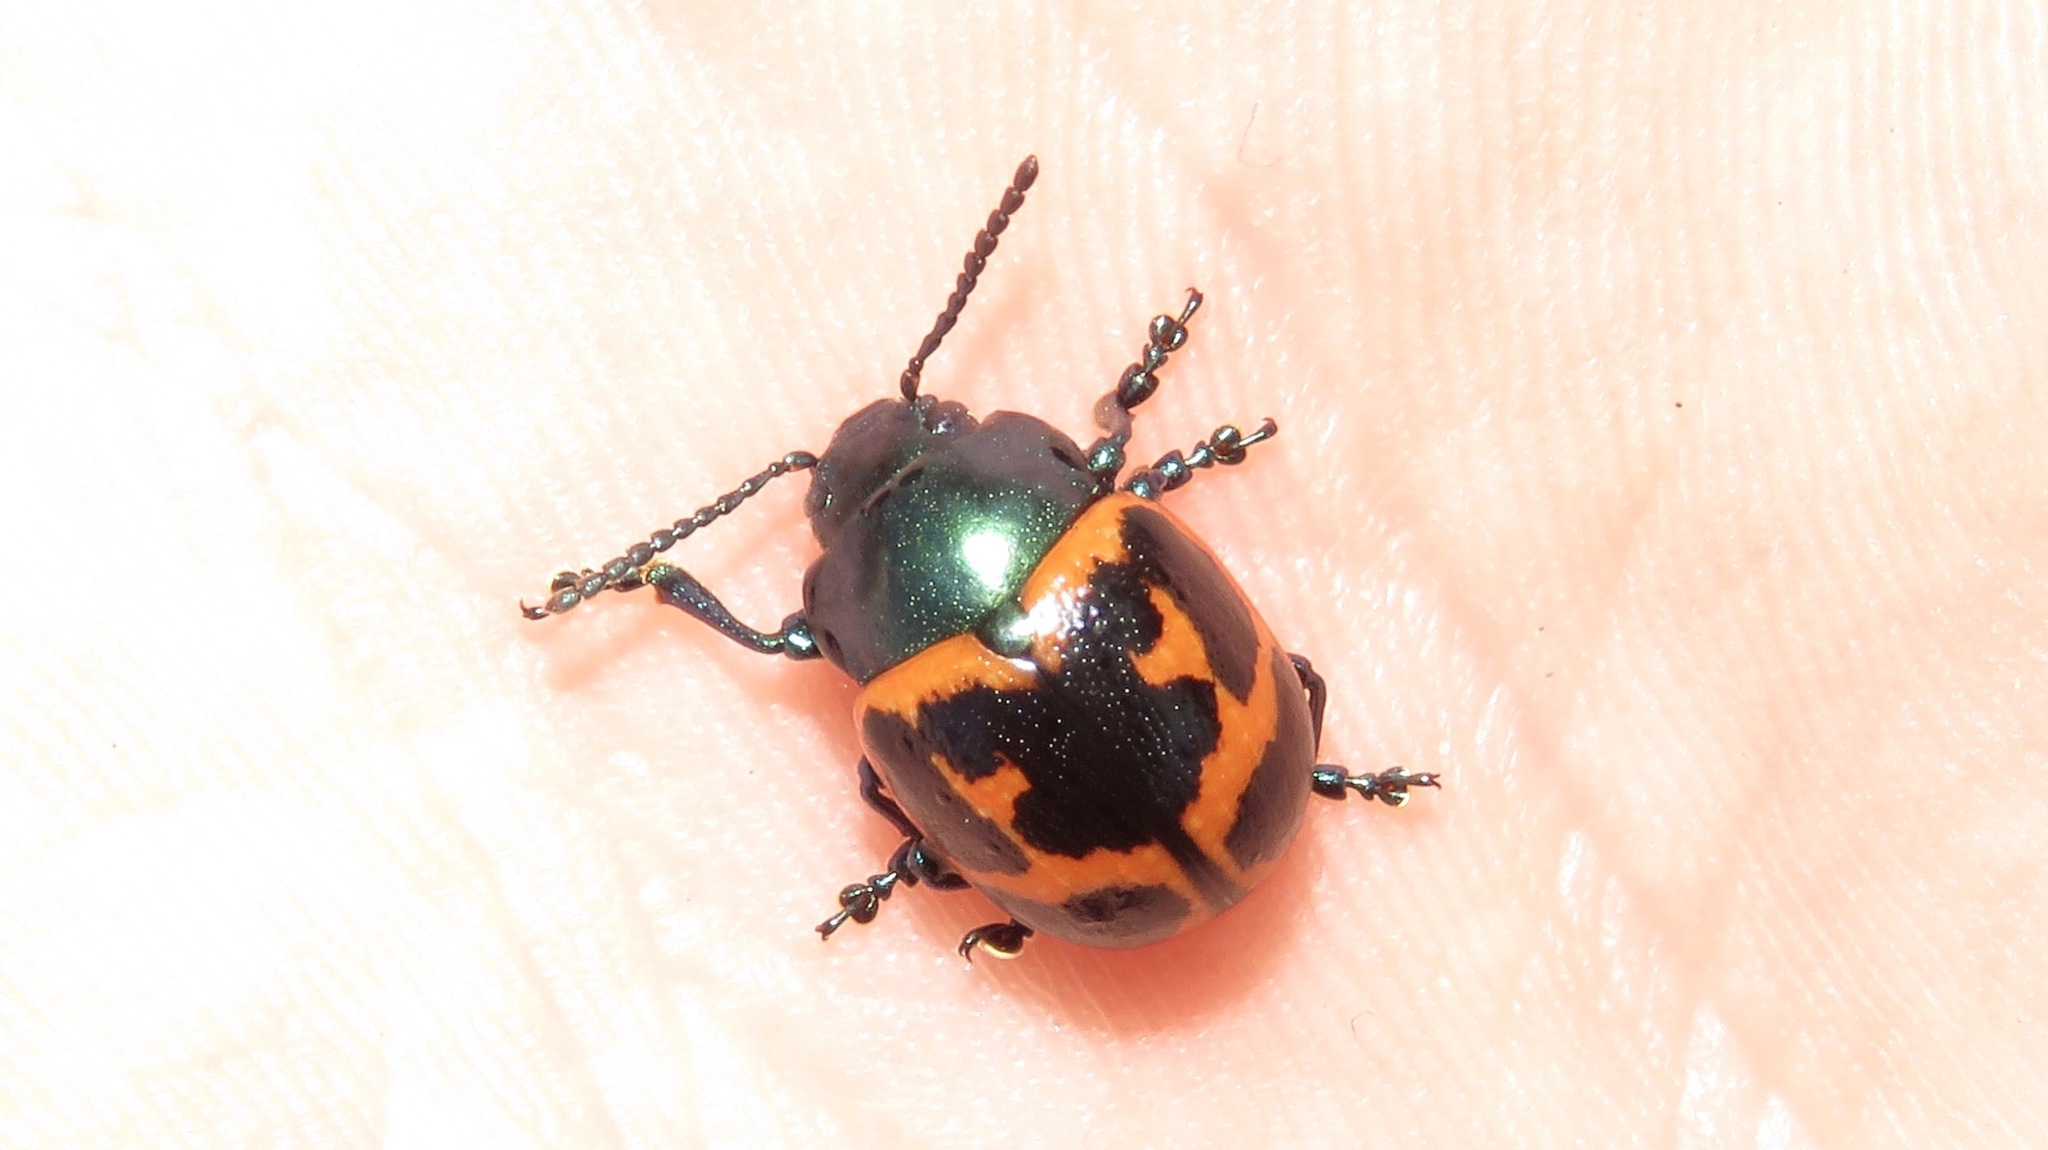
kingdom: Animalia
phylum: Arthropoda
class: Insecta
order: Coleoptera
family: Chrysomelidae
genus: Labidomera
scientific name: Labidomera clivicollis
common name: Swamp milkweed leaf beetle
